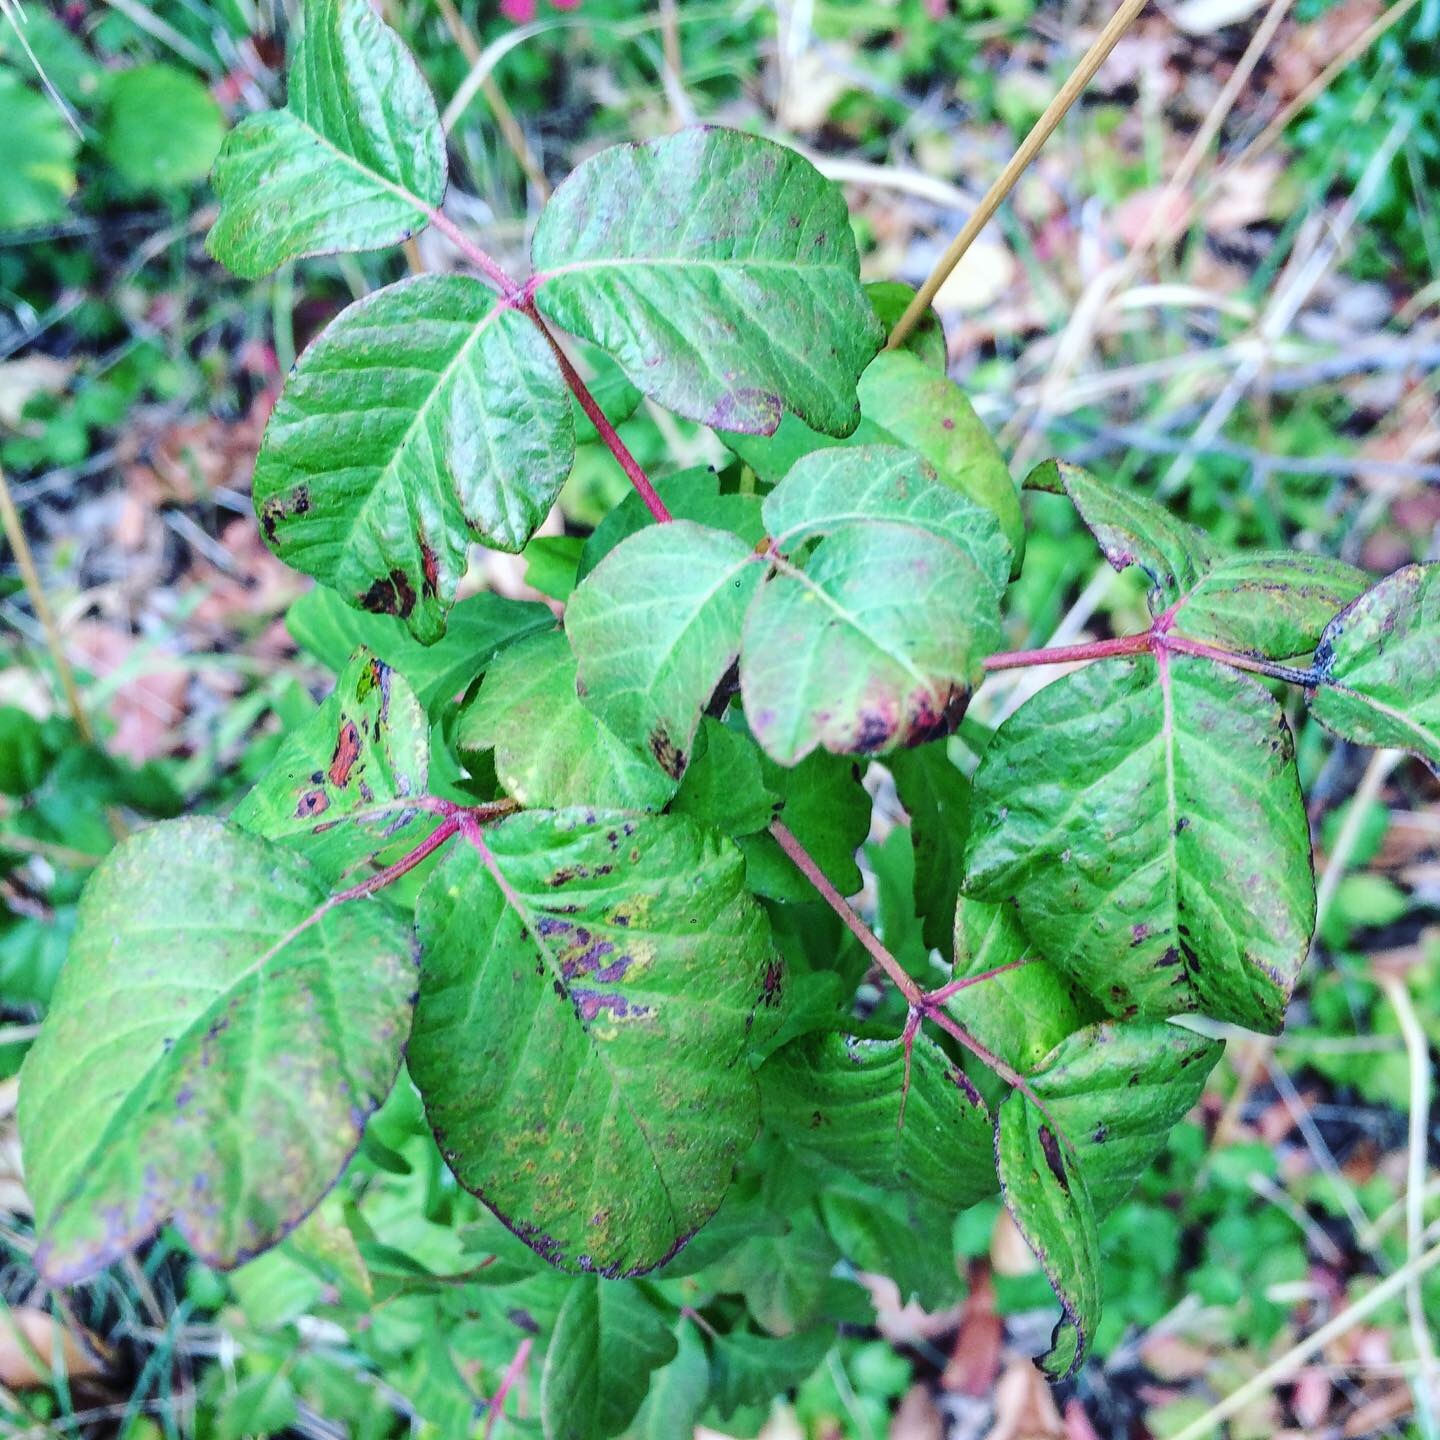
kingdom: Plantae
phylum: Tracheophyta
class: Magnoliopsida
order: Sapindales
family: Anacardiaceae
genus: Toxicodendron
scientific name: Toxicodendron diversilobum
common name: Pacific poison-oak
